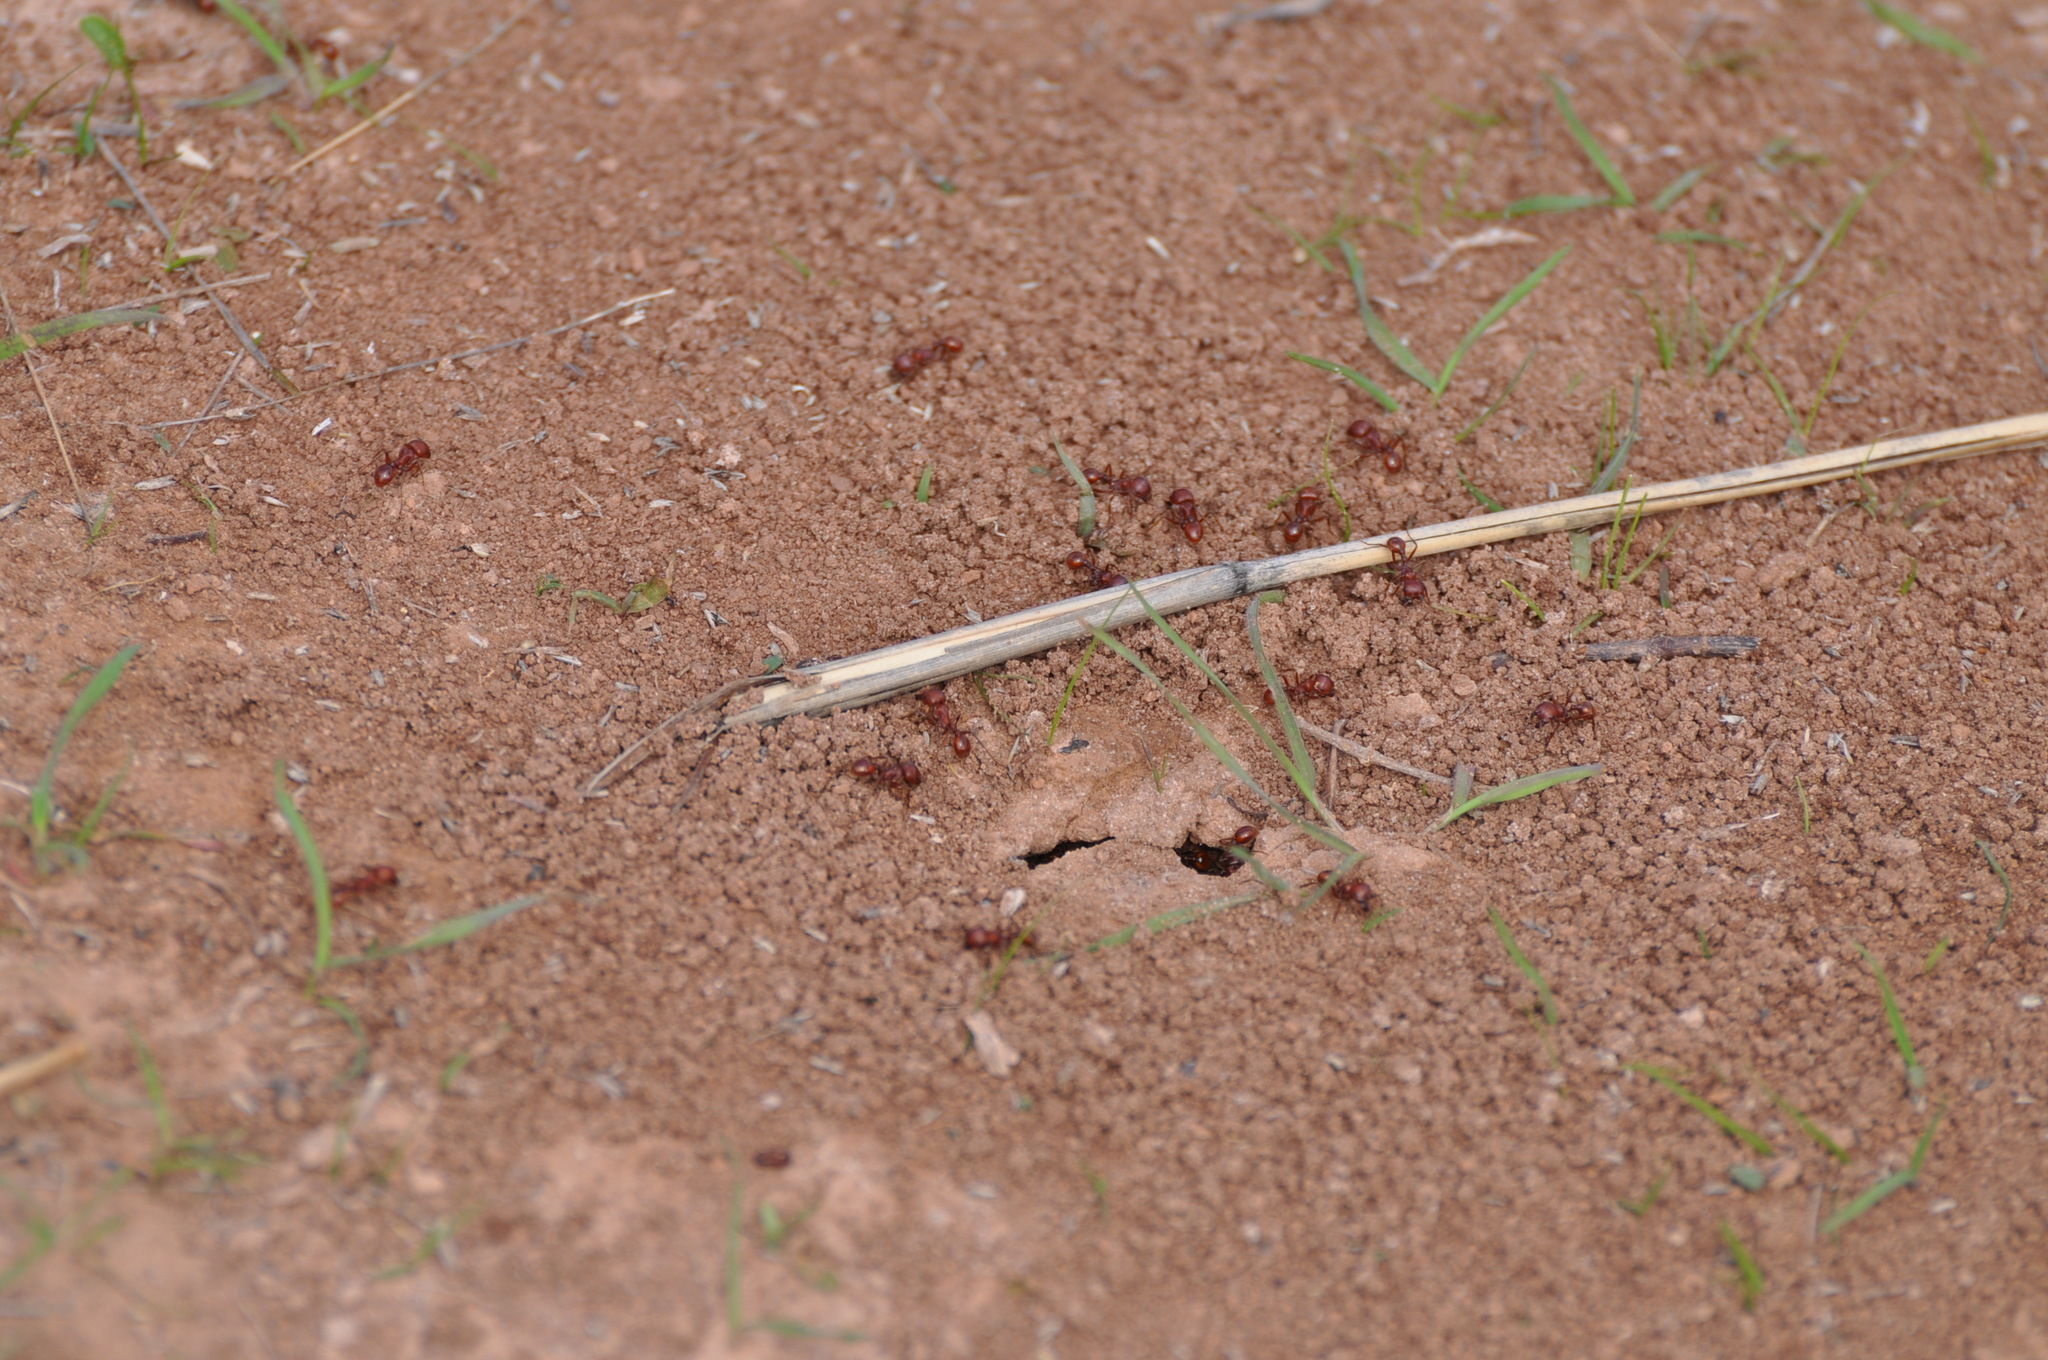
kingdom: Animalia
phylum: Arthropoda
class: Insecta
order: Hymenoptera
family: Formicidae
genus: Pogonomyrmex
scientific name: Pogonomyrmex barbatus
